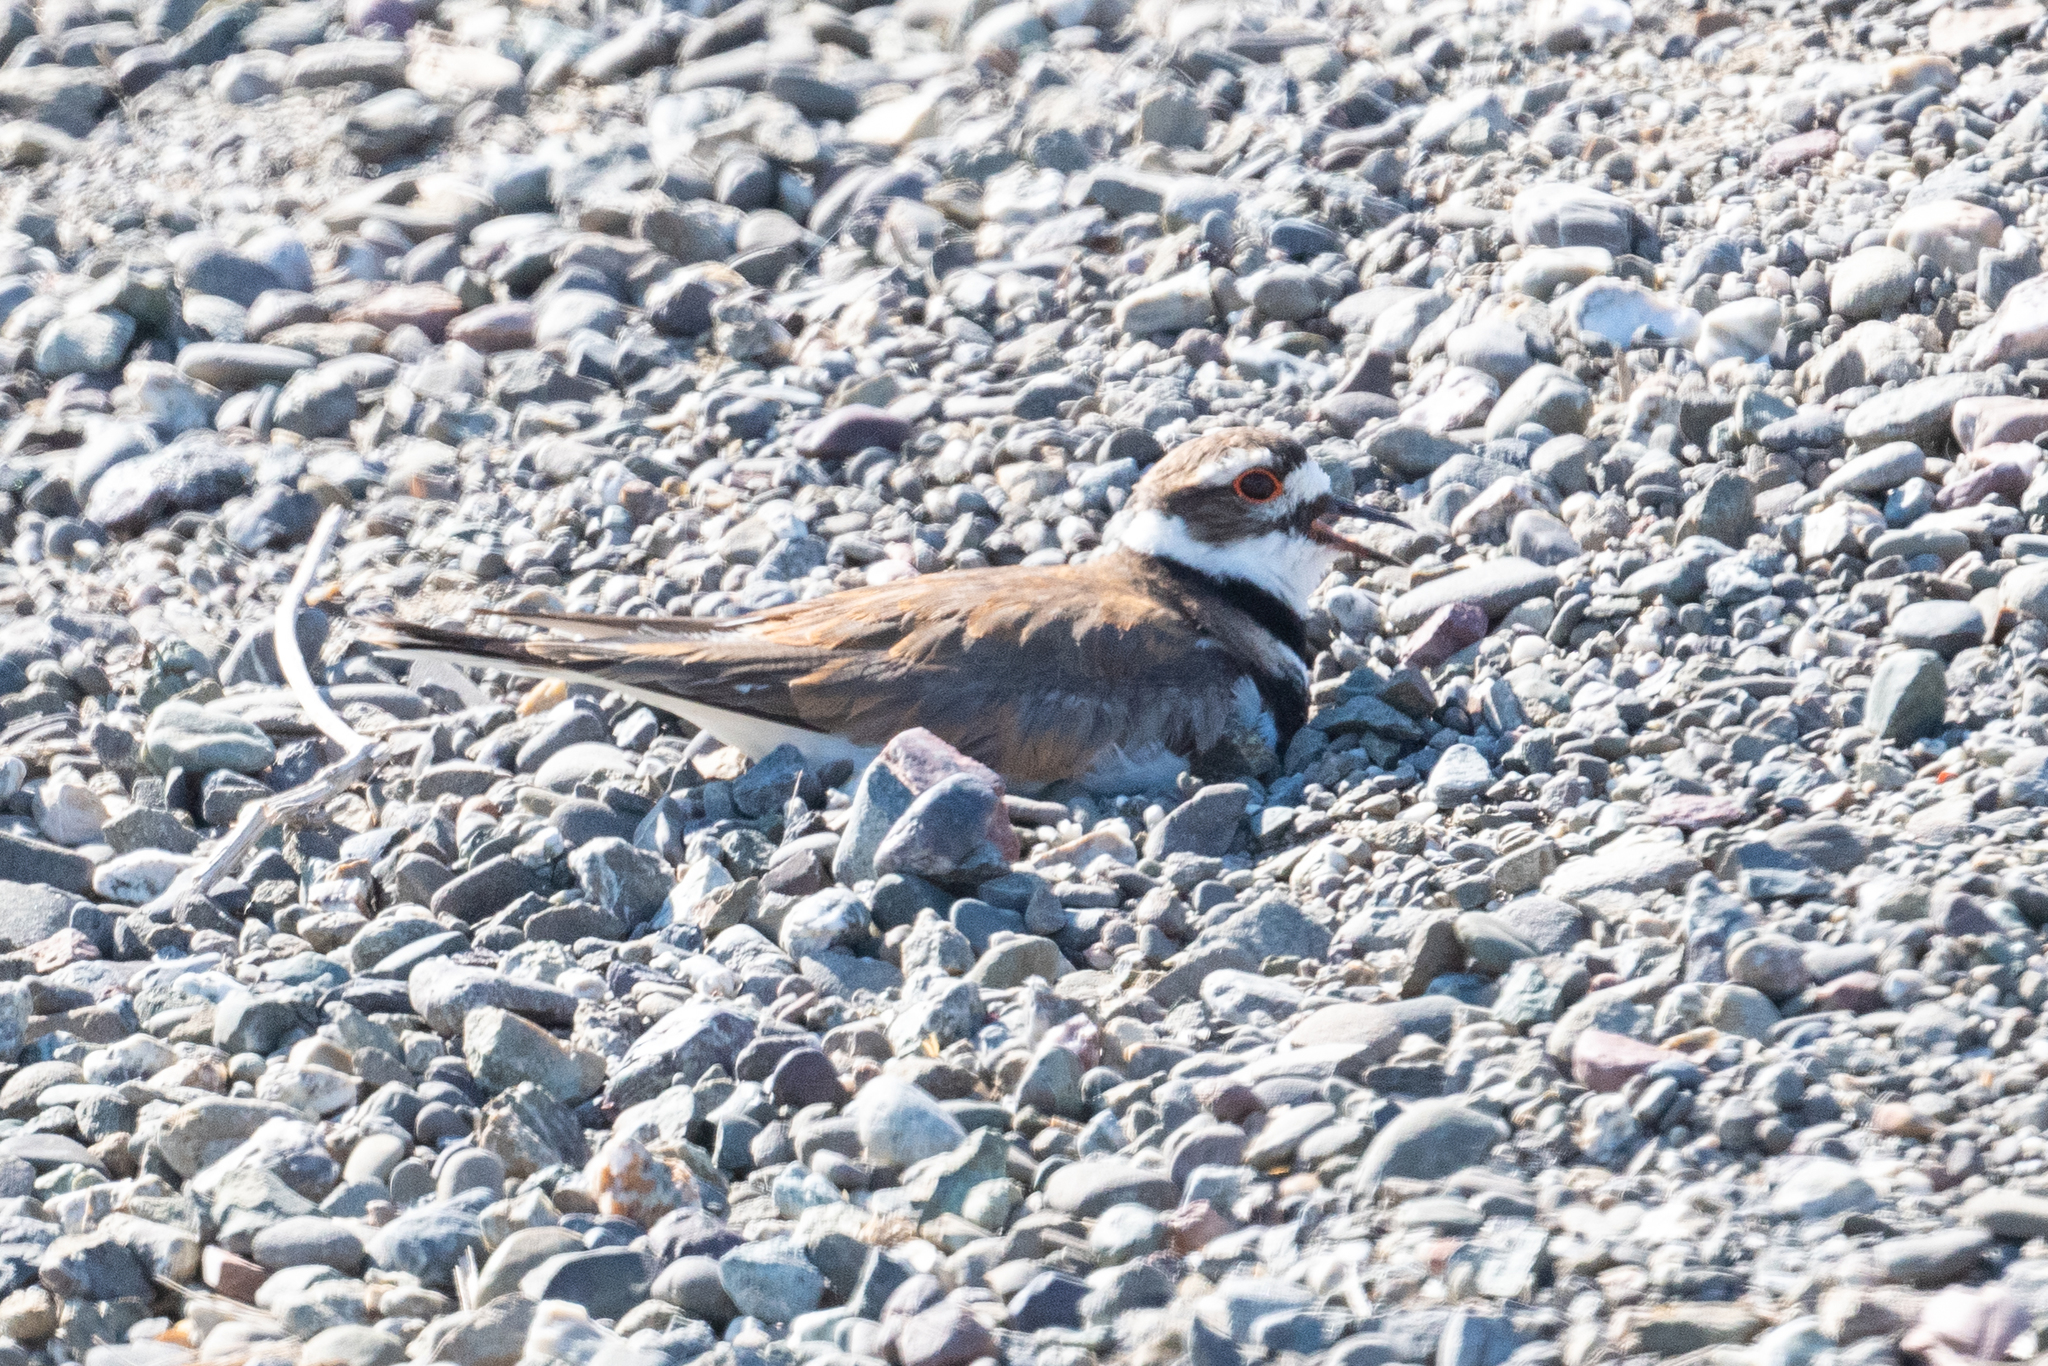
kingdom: Animalia
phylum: Chordata
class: Aves
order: Charadriiformes
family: Charadriidae
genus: Charadrius
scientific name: Charadrius vociferus
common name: Killdeer
